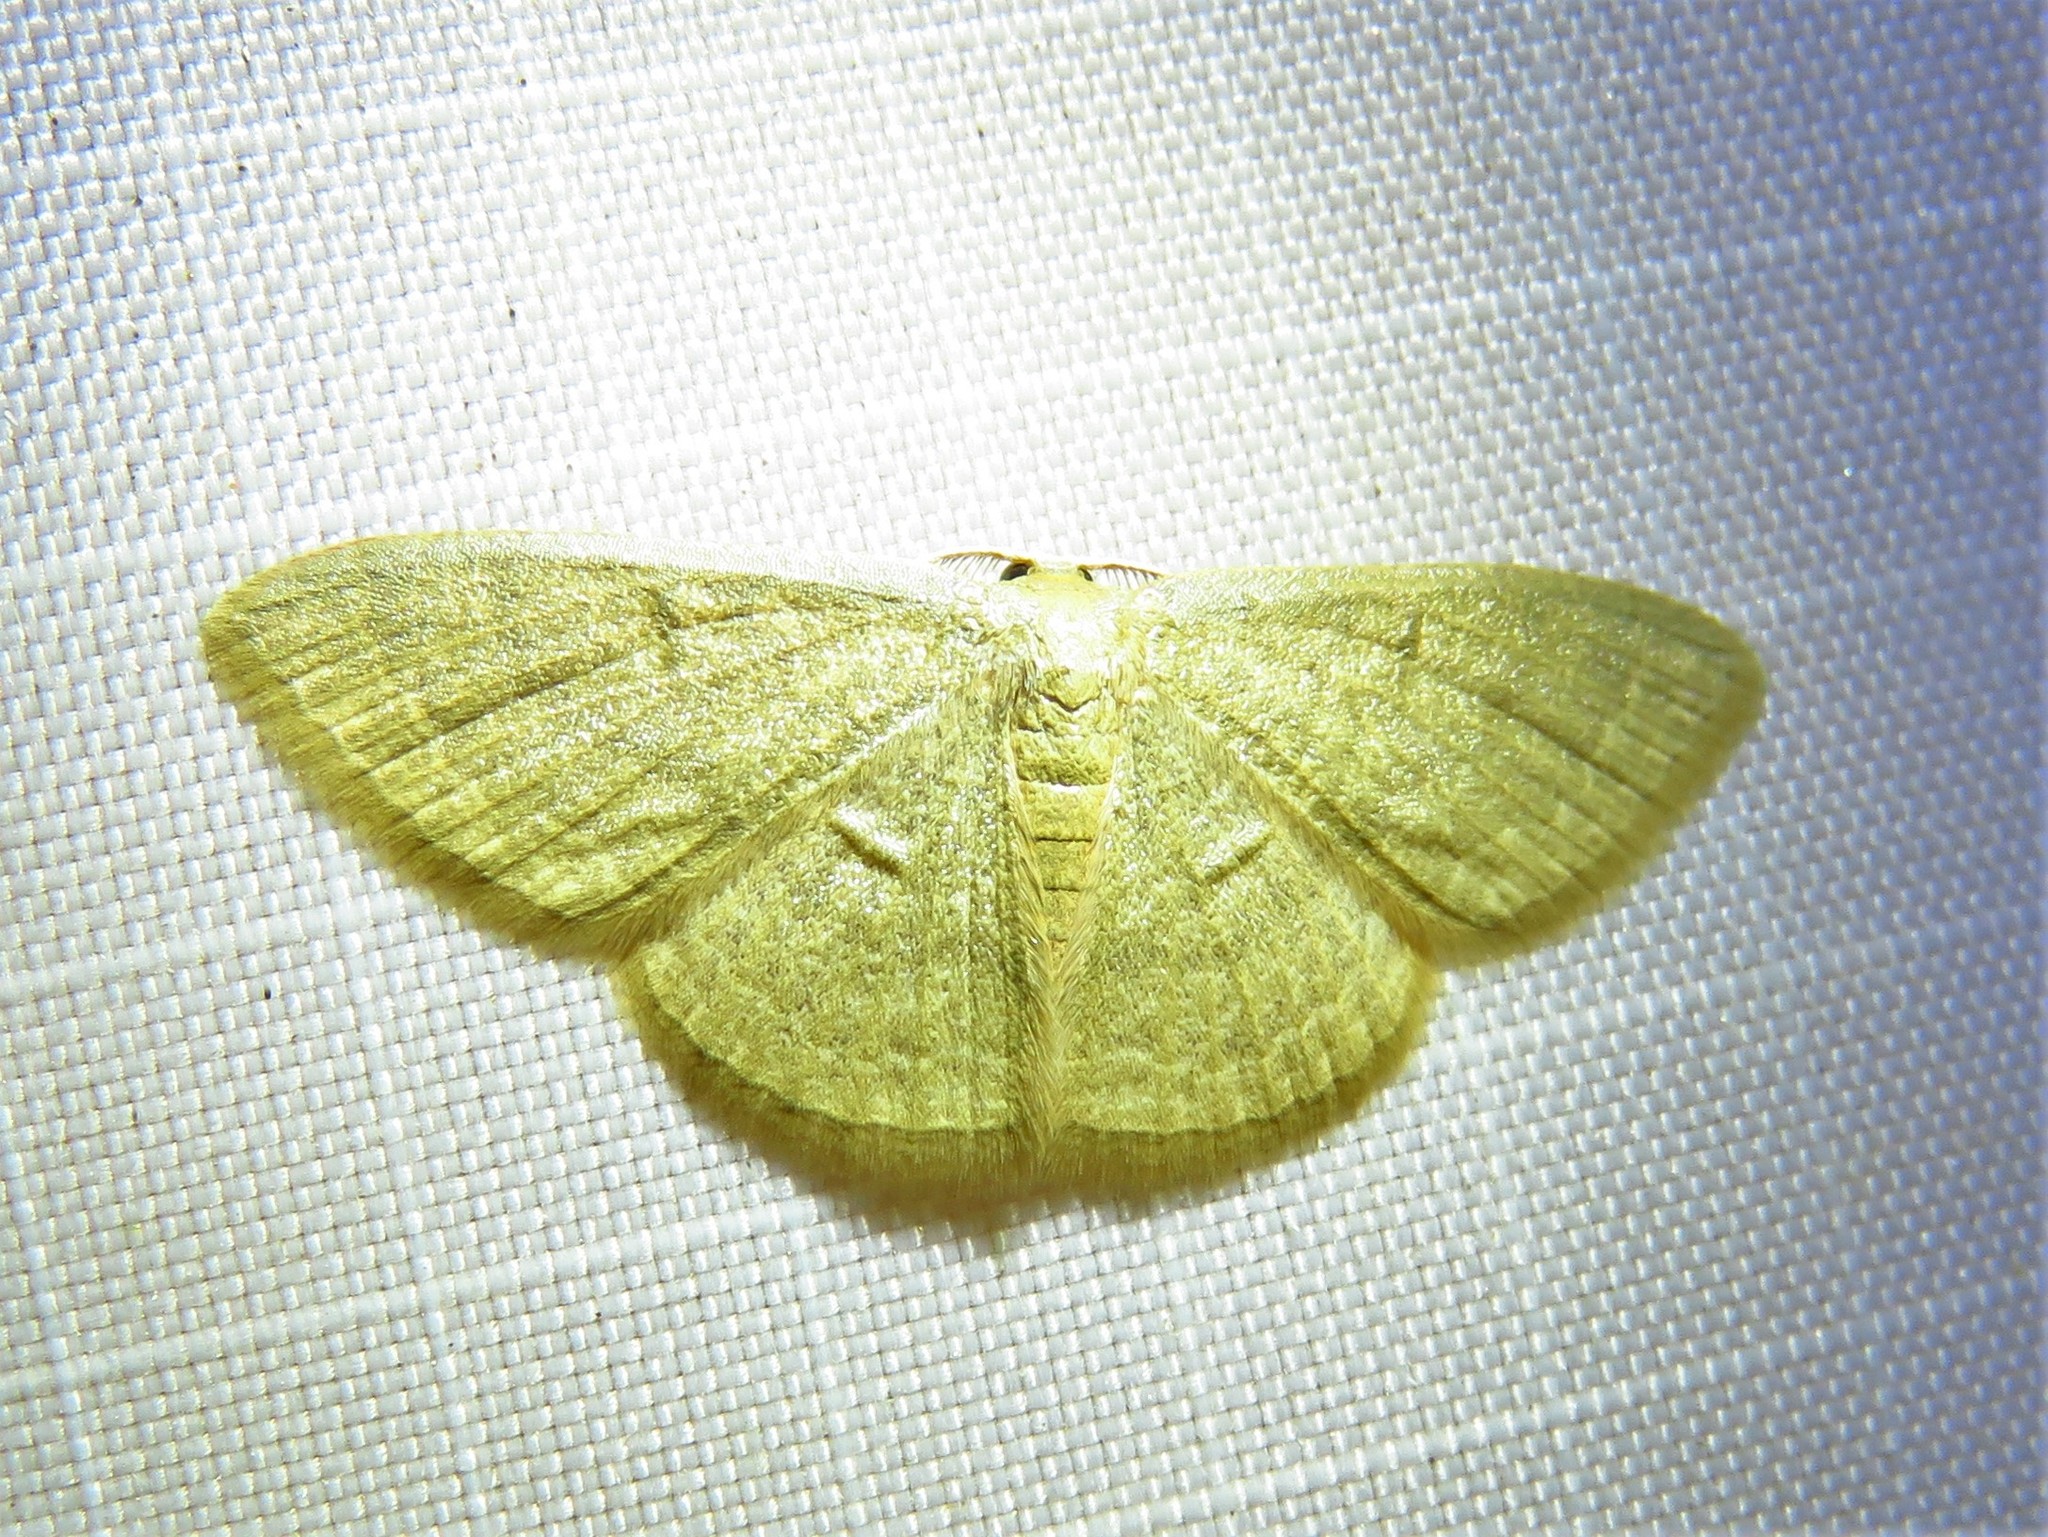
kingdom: Animalia
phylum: Arthropoda
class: Insecta
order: Lepidoptera
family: Geometridae
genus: Pleuroprucha
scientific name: Pleuroprucha insulsaria
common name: Common tan wave
